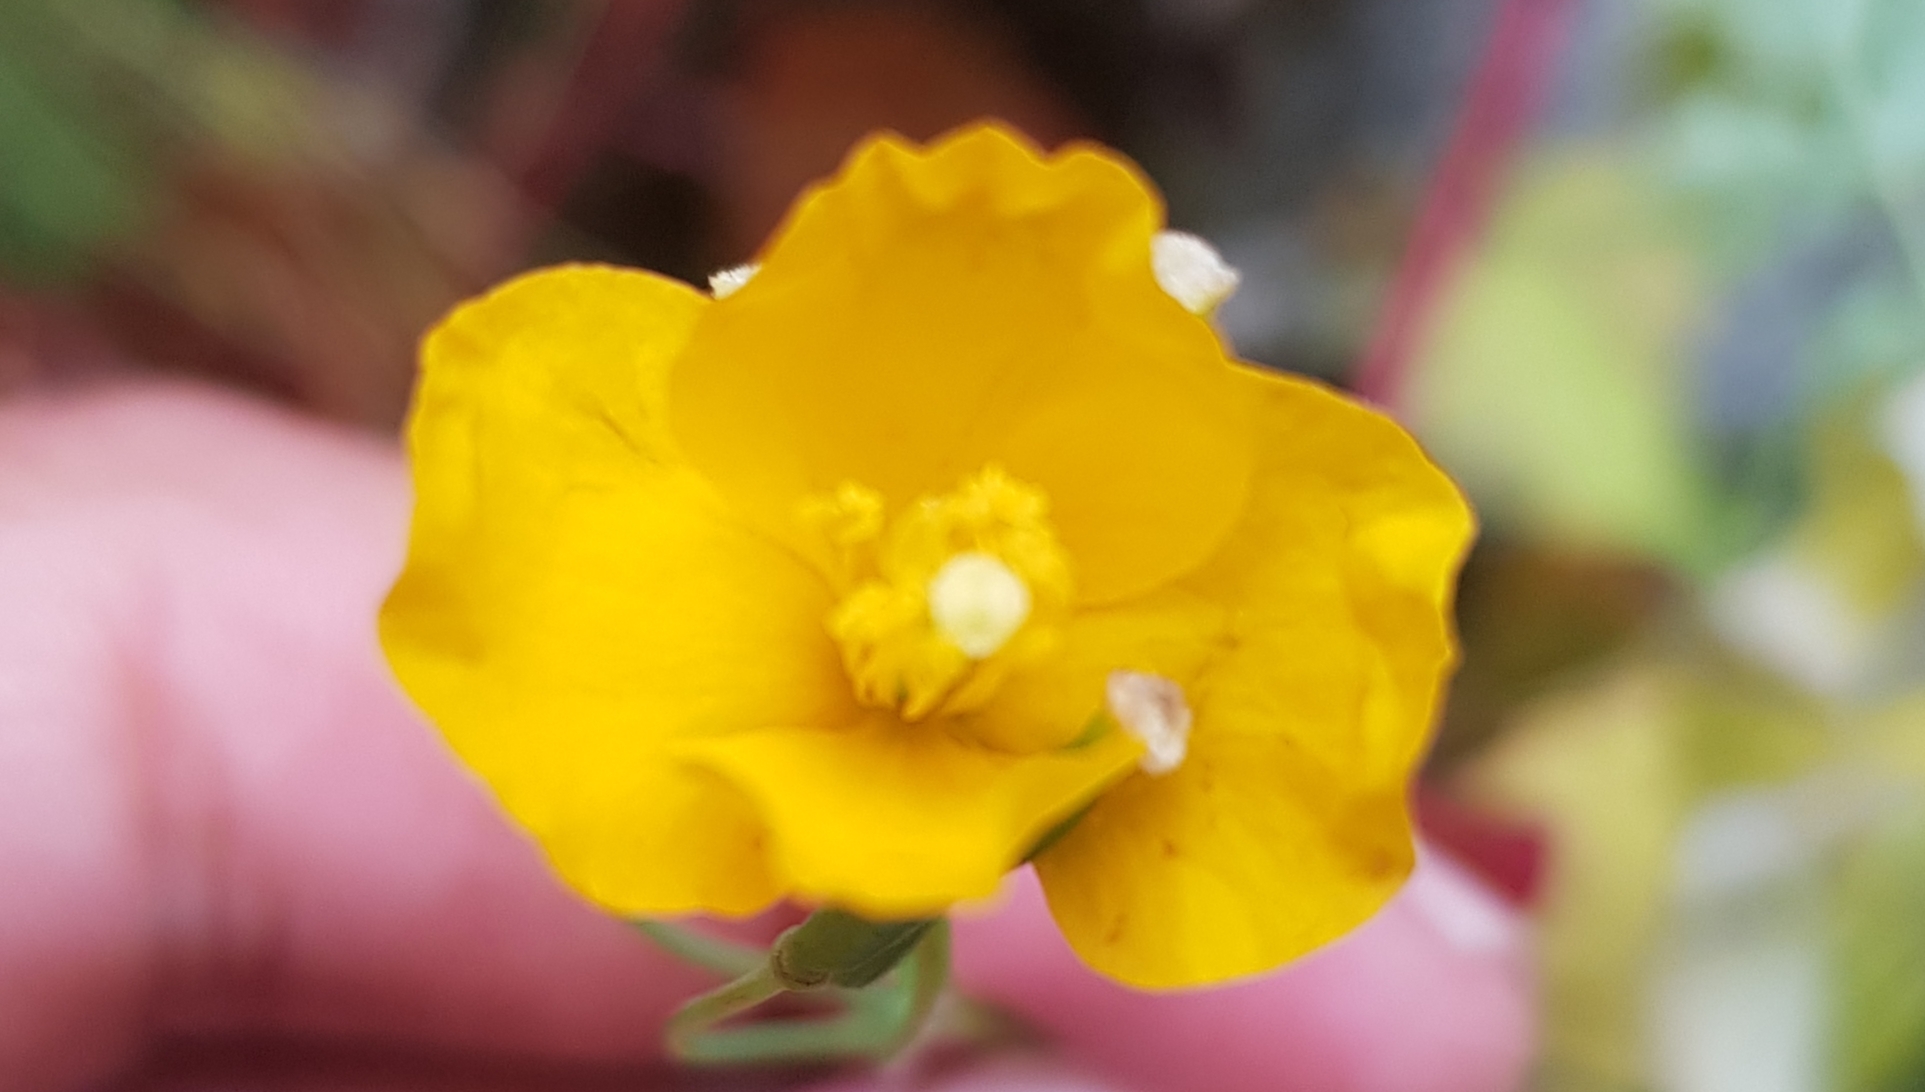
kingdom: Plantae
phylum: Tracheophyta
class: Magnoliopsida
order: Ranunculales
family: Papaveraceae
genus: Chelidonium
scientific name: Chelidonium majus
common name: Greater celandine
